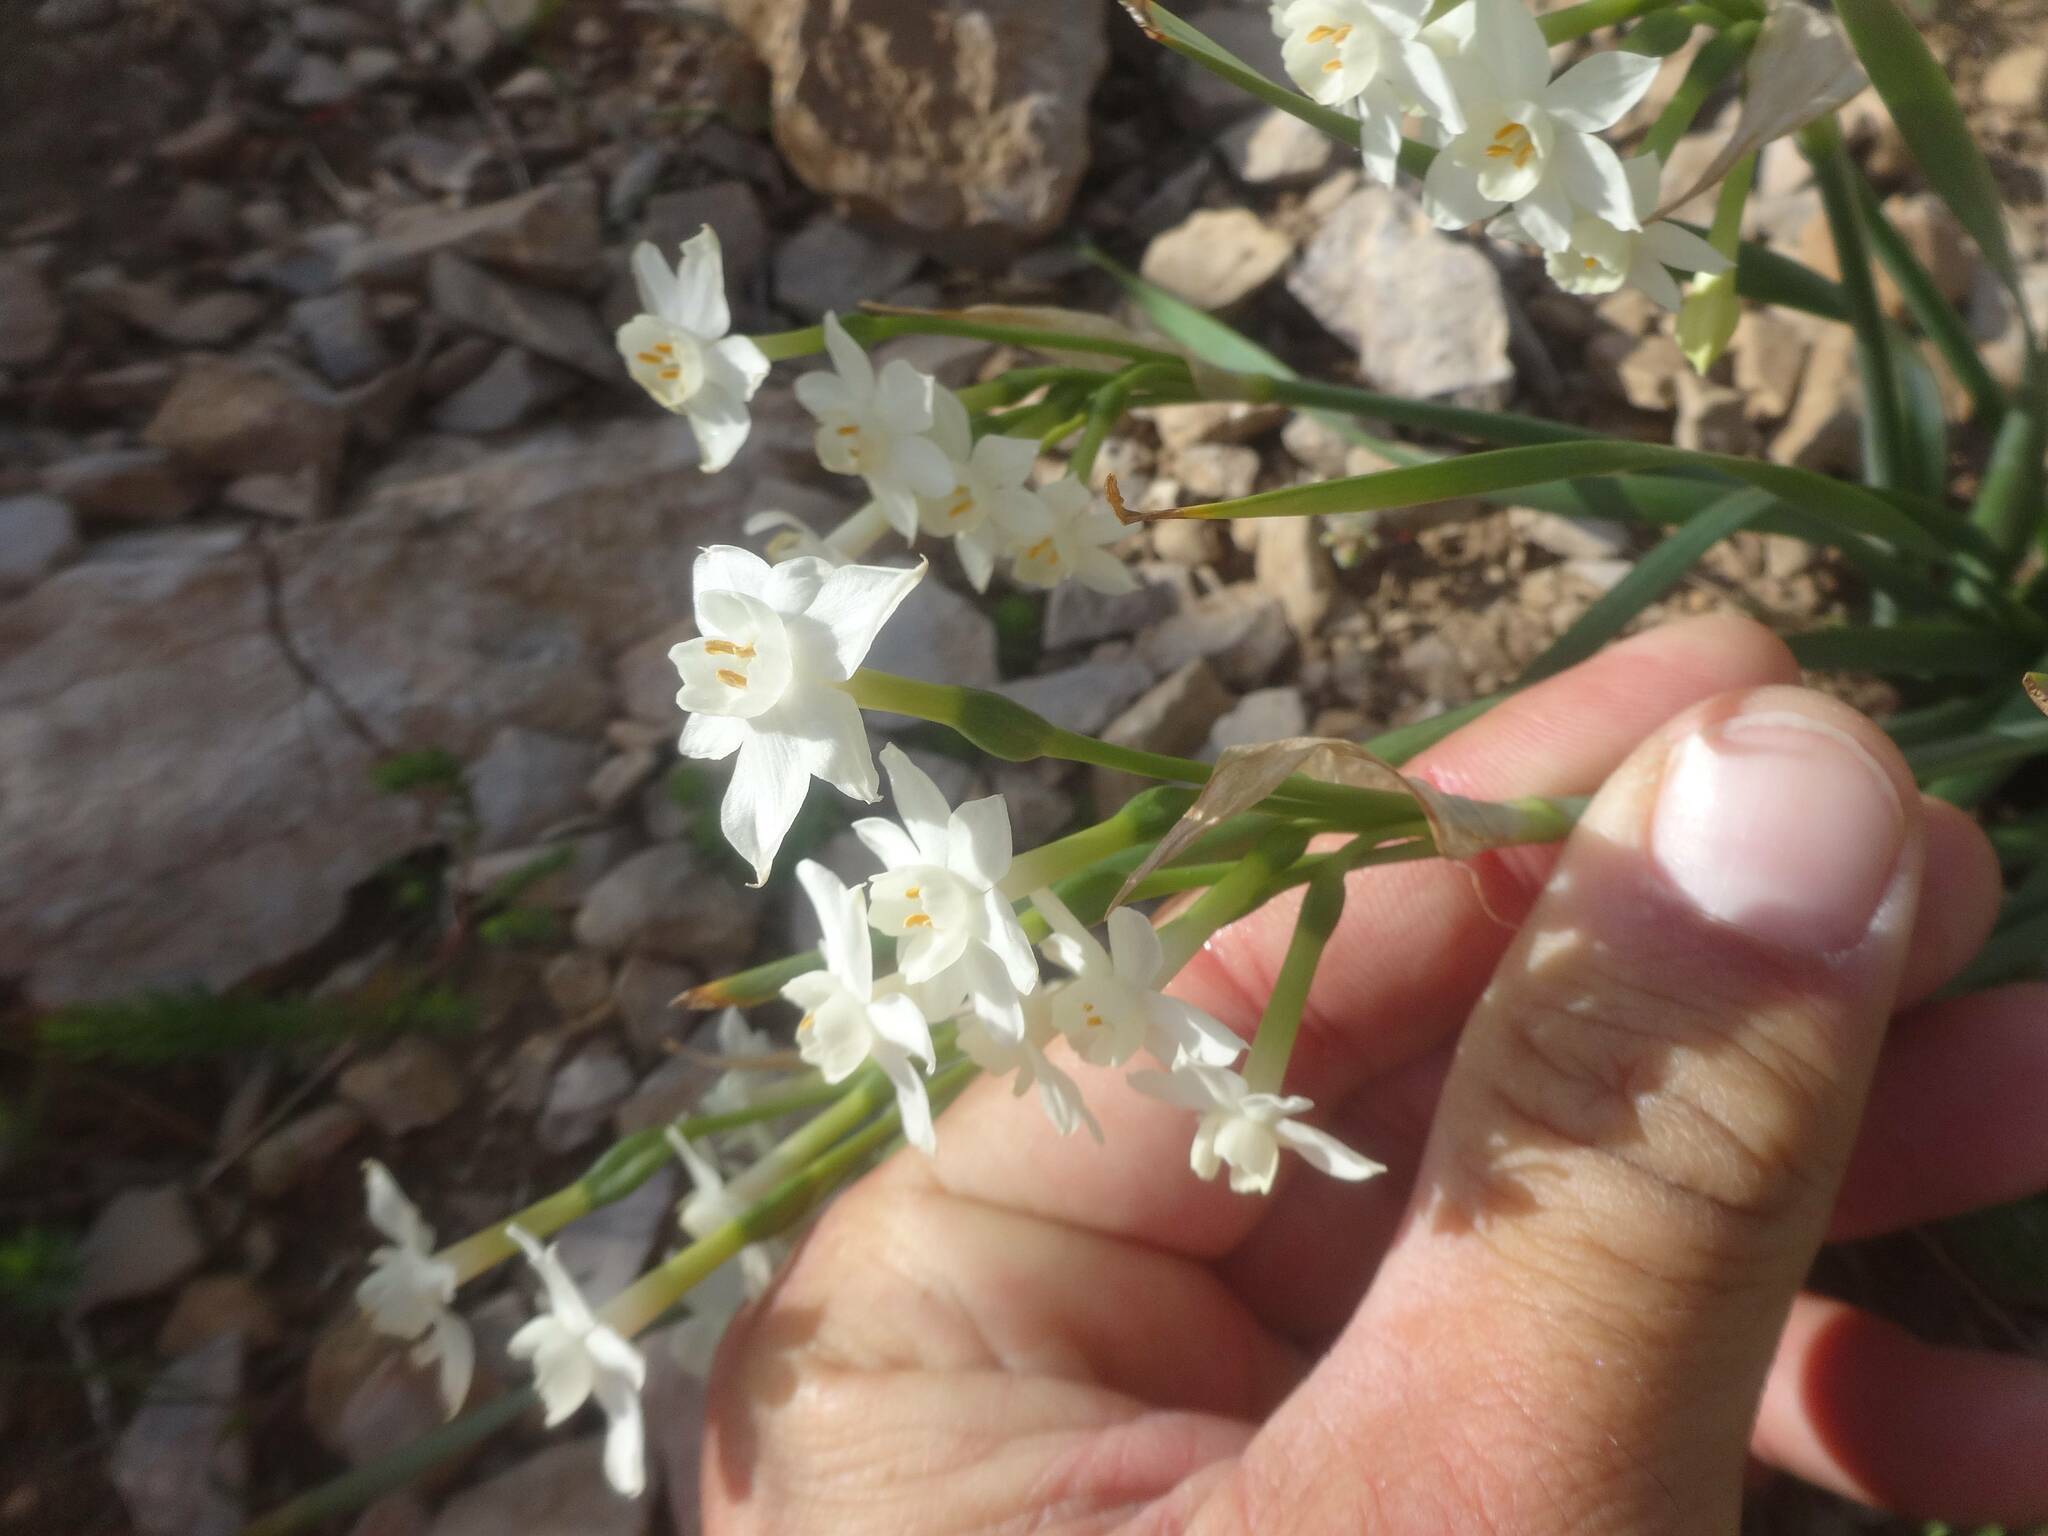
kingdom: Plantae
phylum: Tracheophyta
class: Liliopsida
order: Asparagales
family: Amaryllidaceae
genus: Narcissus
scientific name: Narcissus dubius
